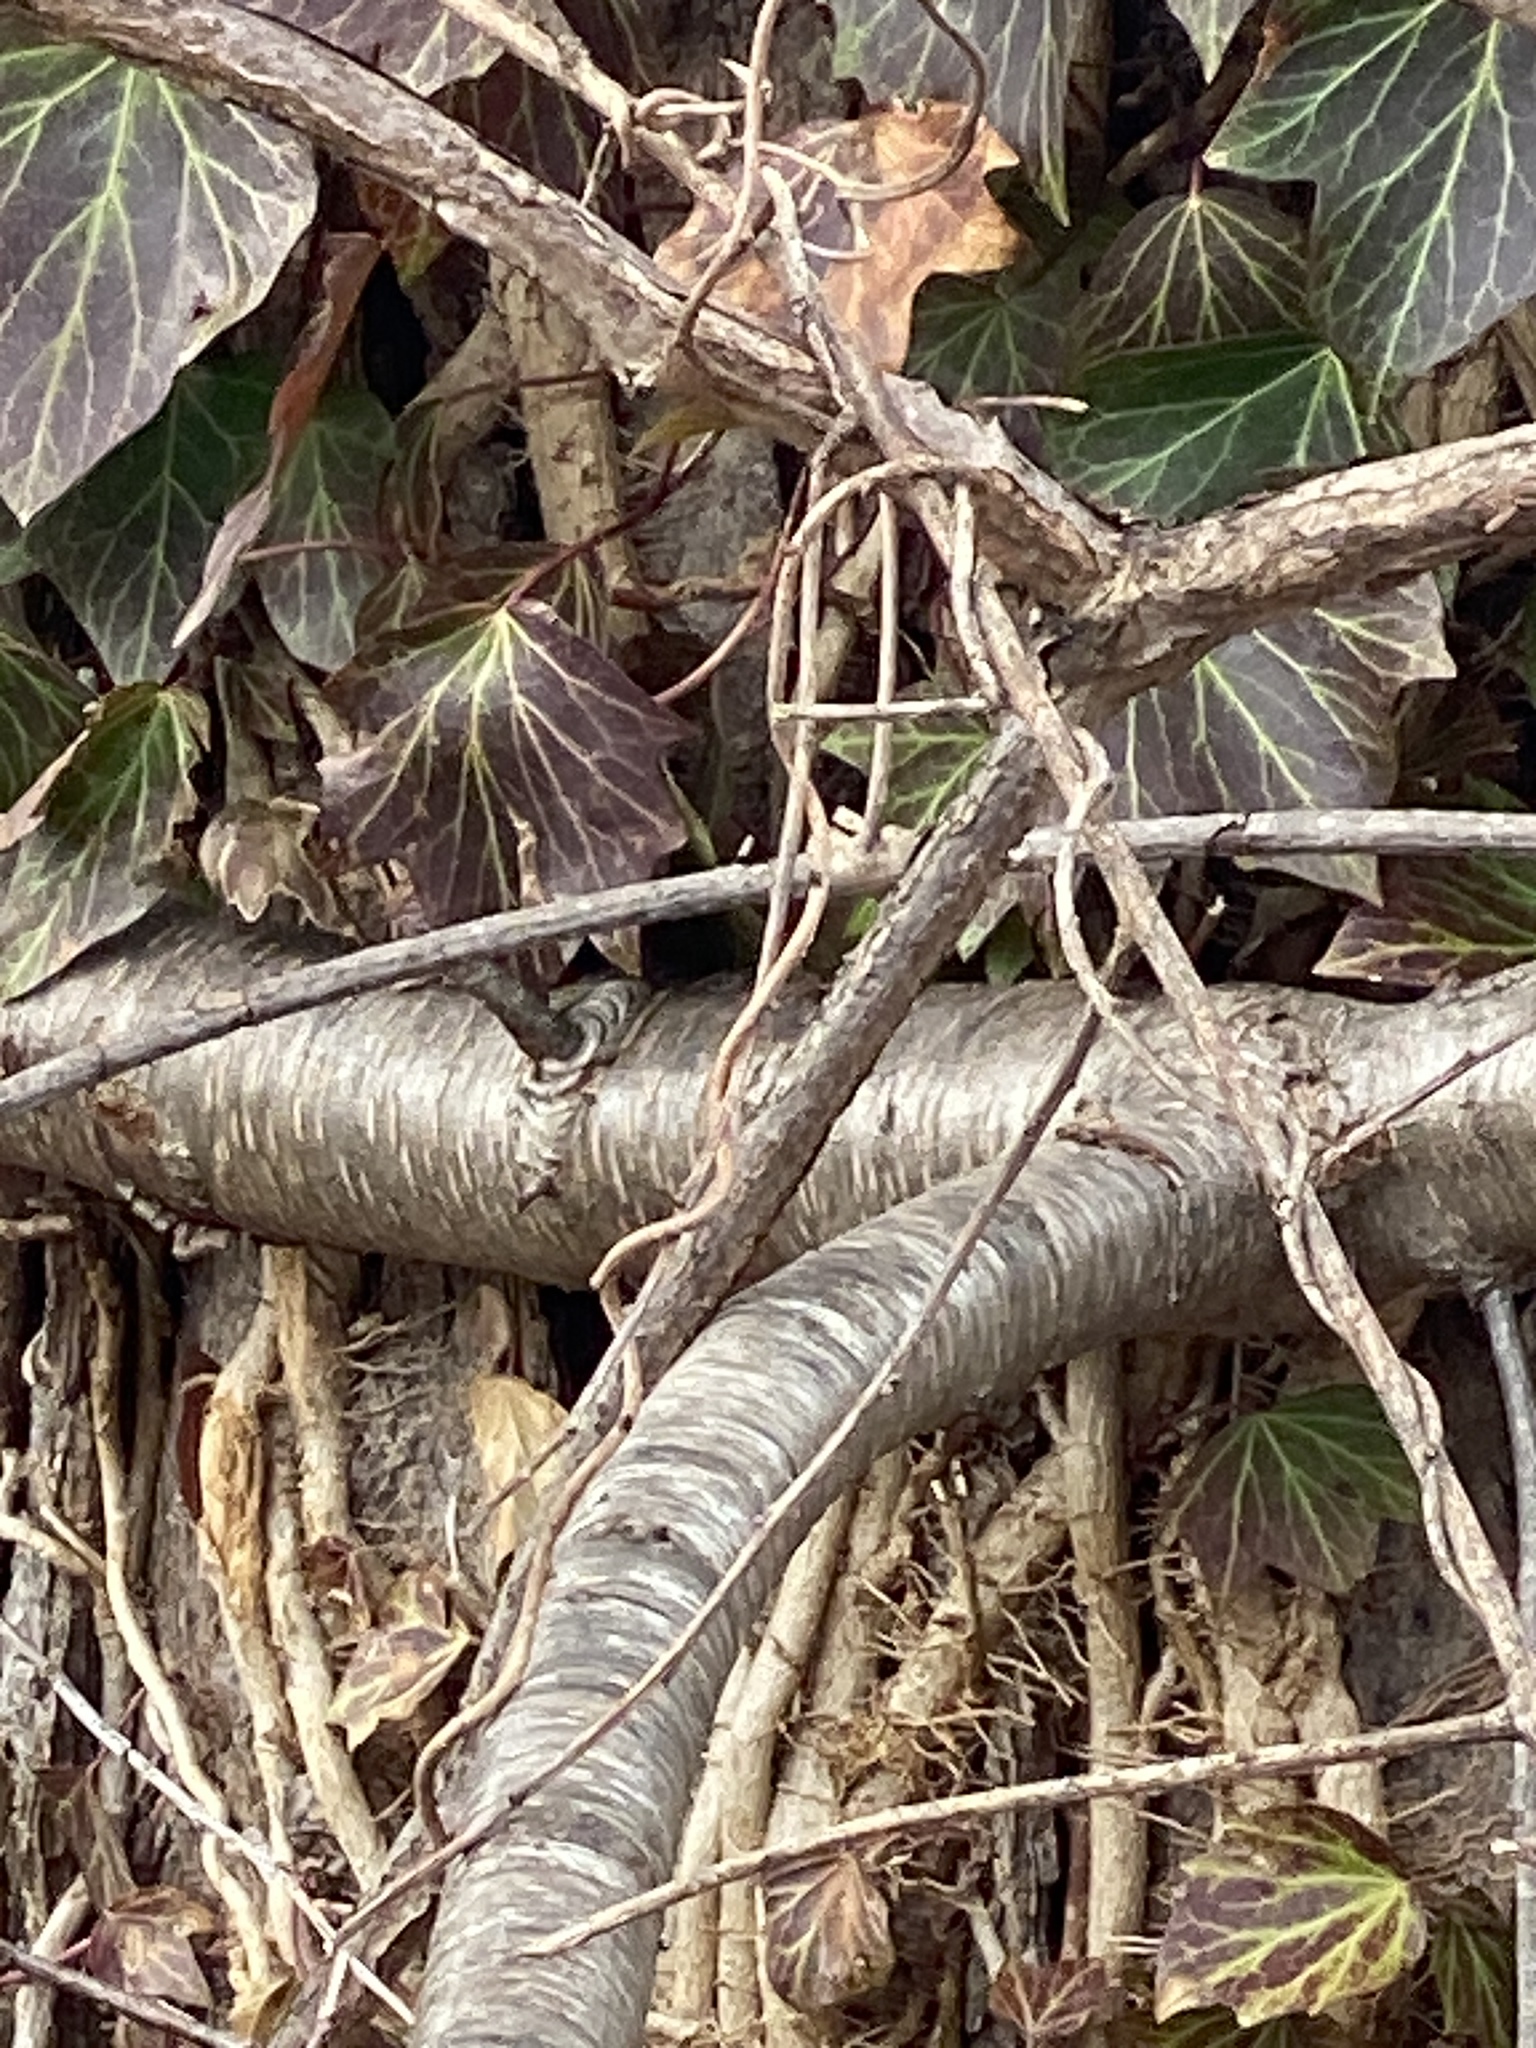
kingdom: Plantae
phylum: Tracheophyta
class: Magnoliopsida
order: Rosales
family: Rosaceae
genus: Prunus
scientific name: Prunus serotina
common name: Black cherry
